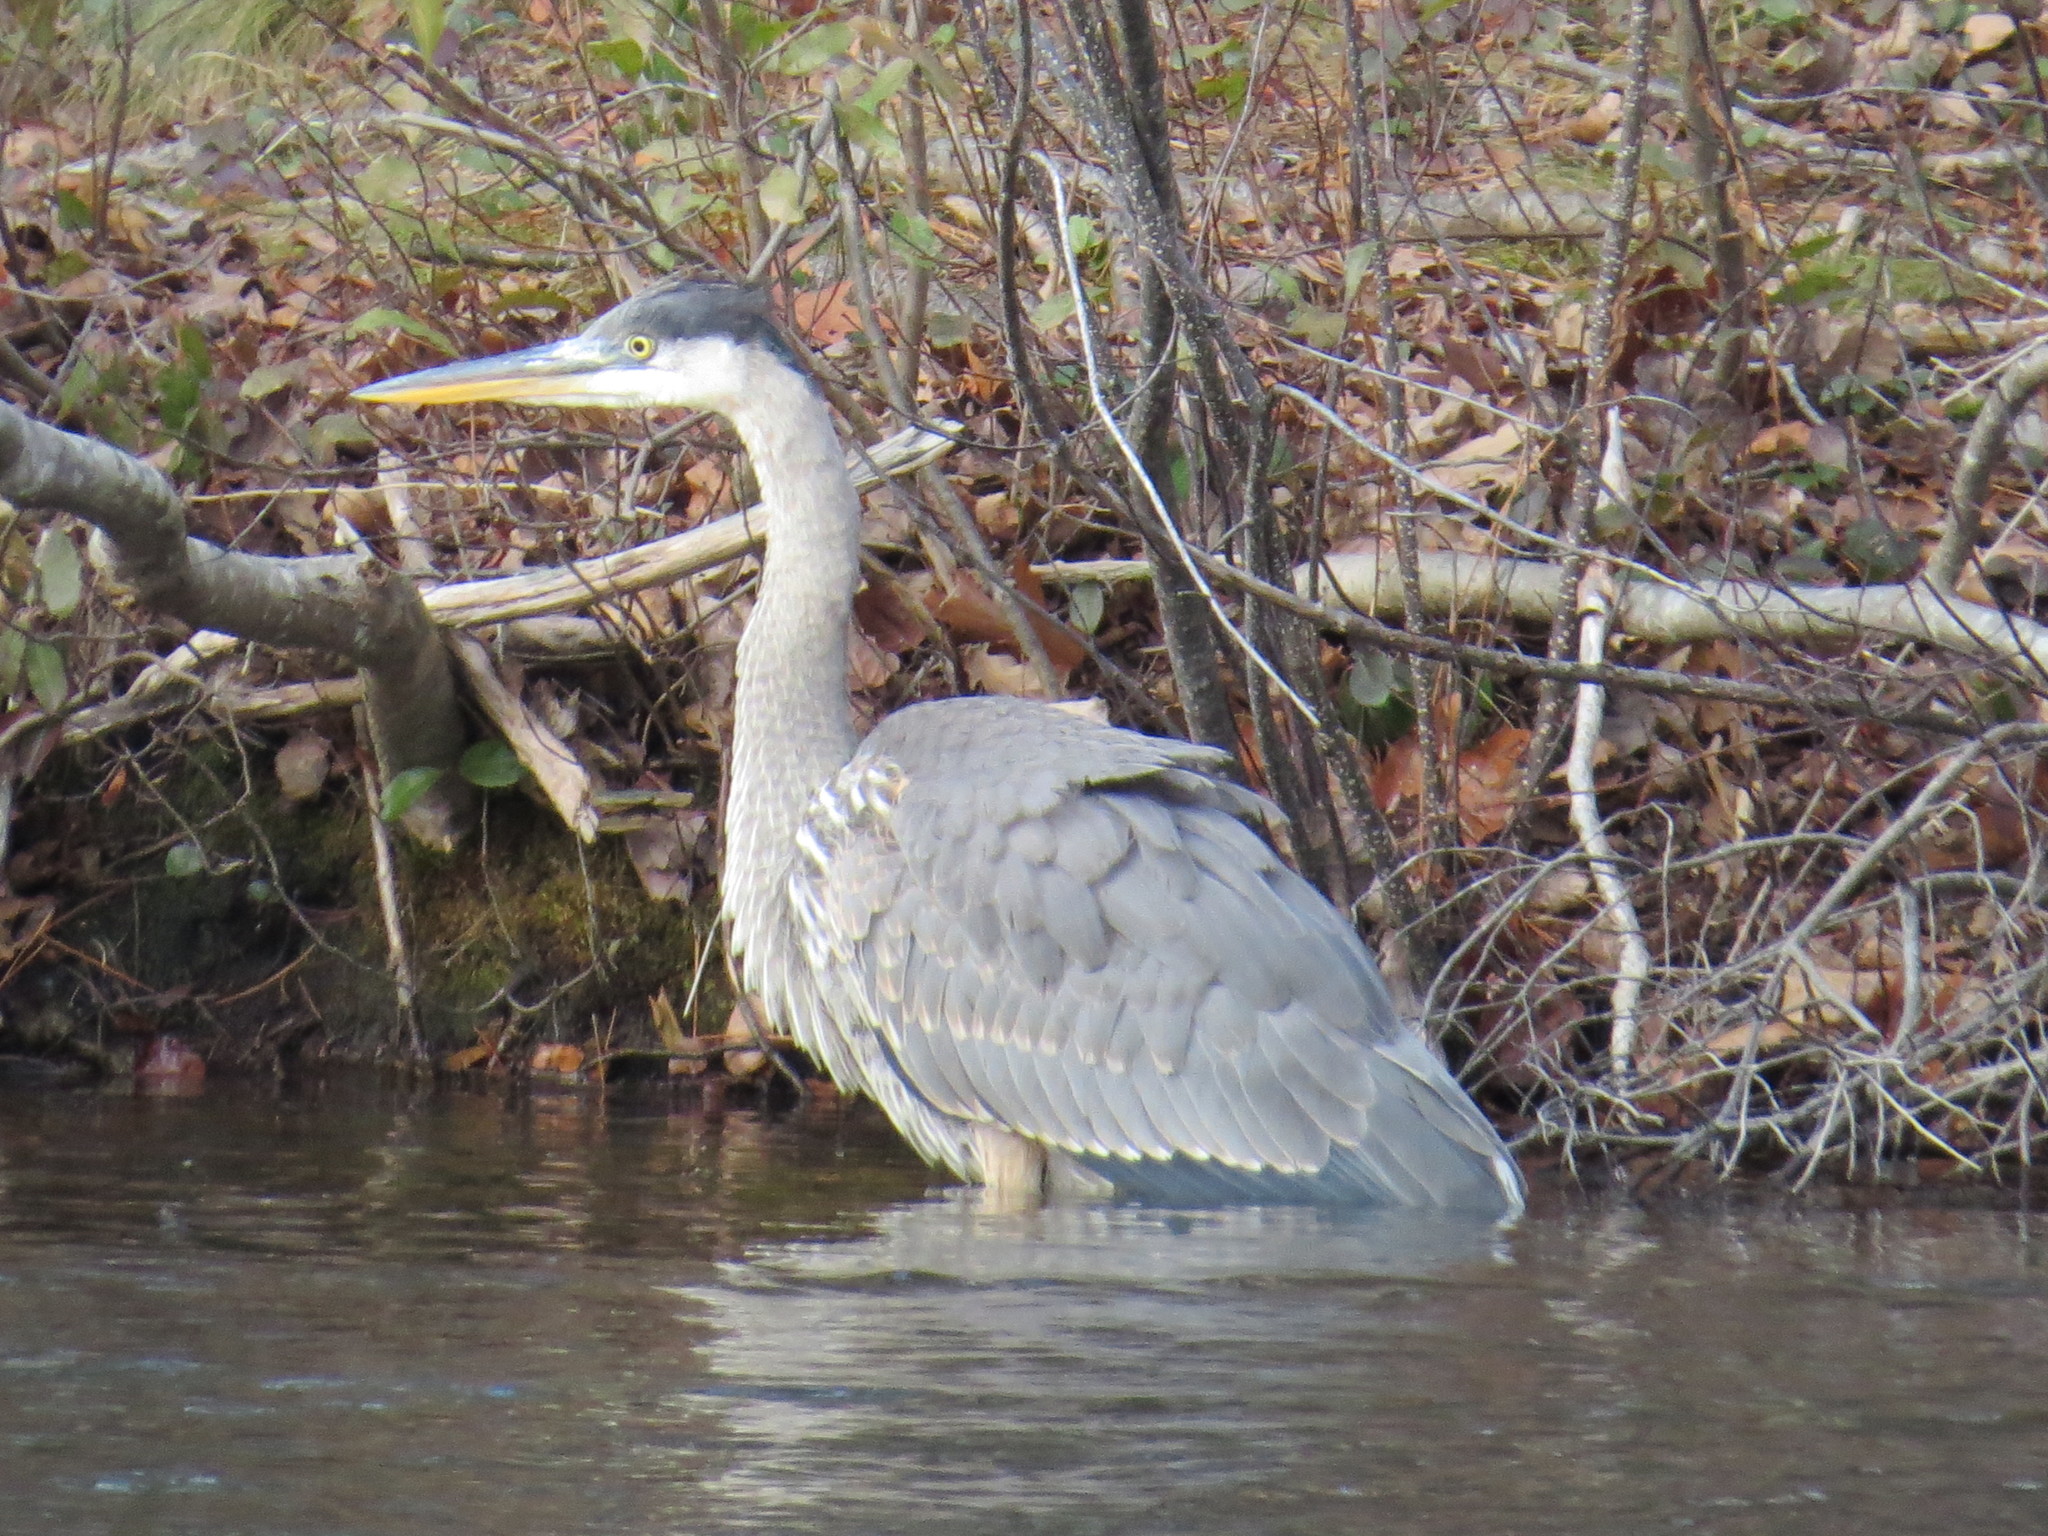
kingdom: Animalia
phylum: Chordata
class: Aves
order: Pelecaniformes
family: Ardeidae
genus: Ardea
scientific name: Ardea herodias
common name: Great blue heron
